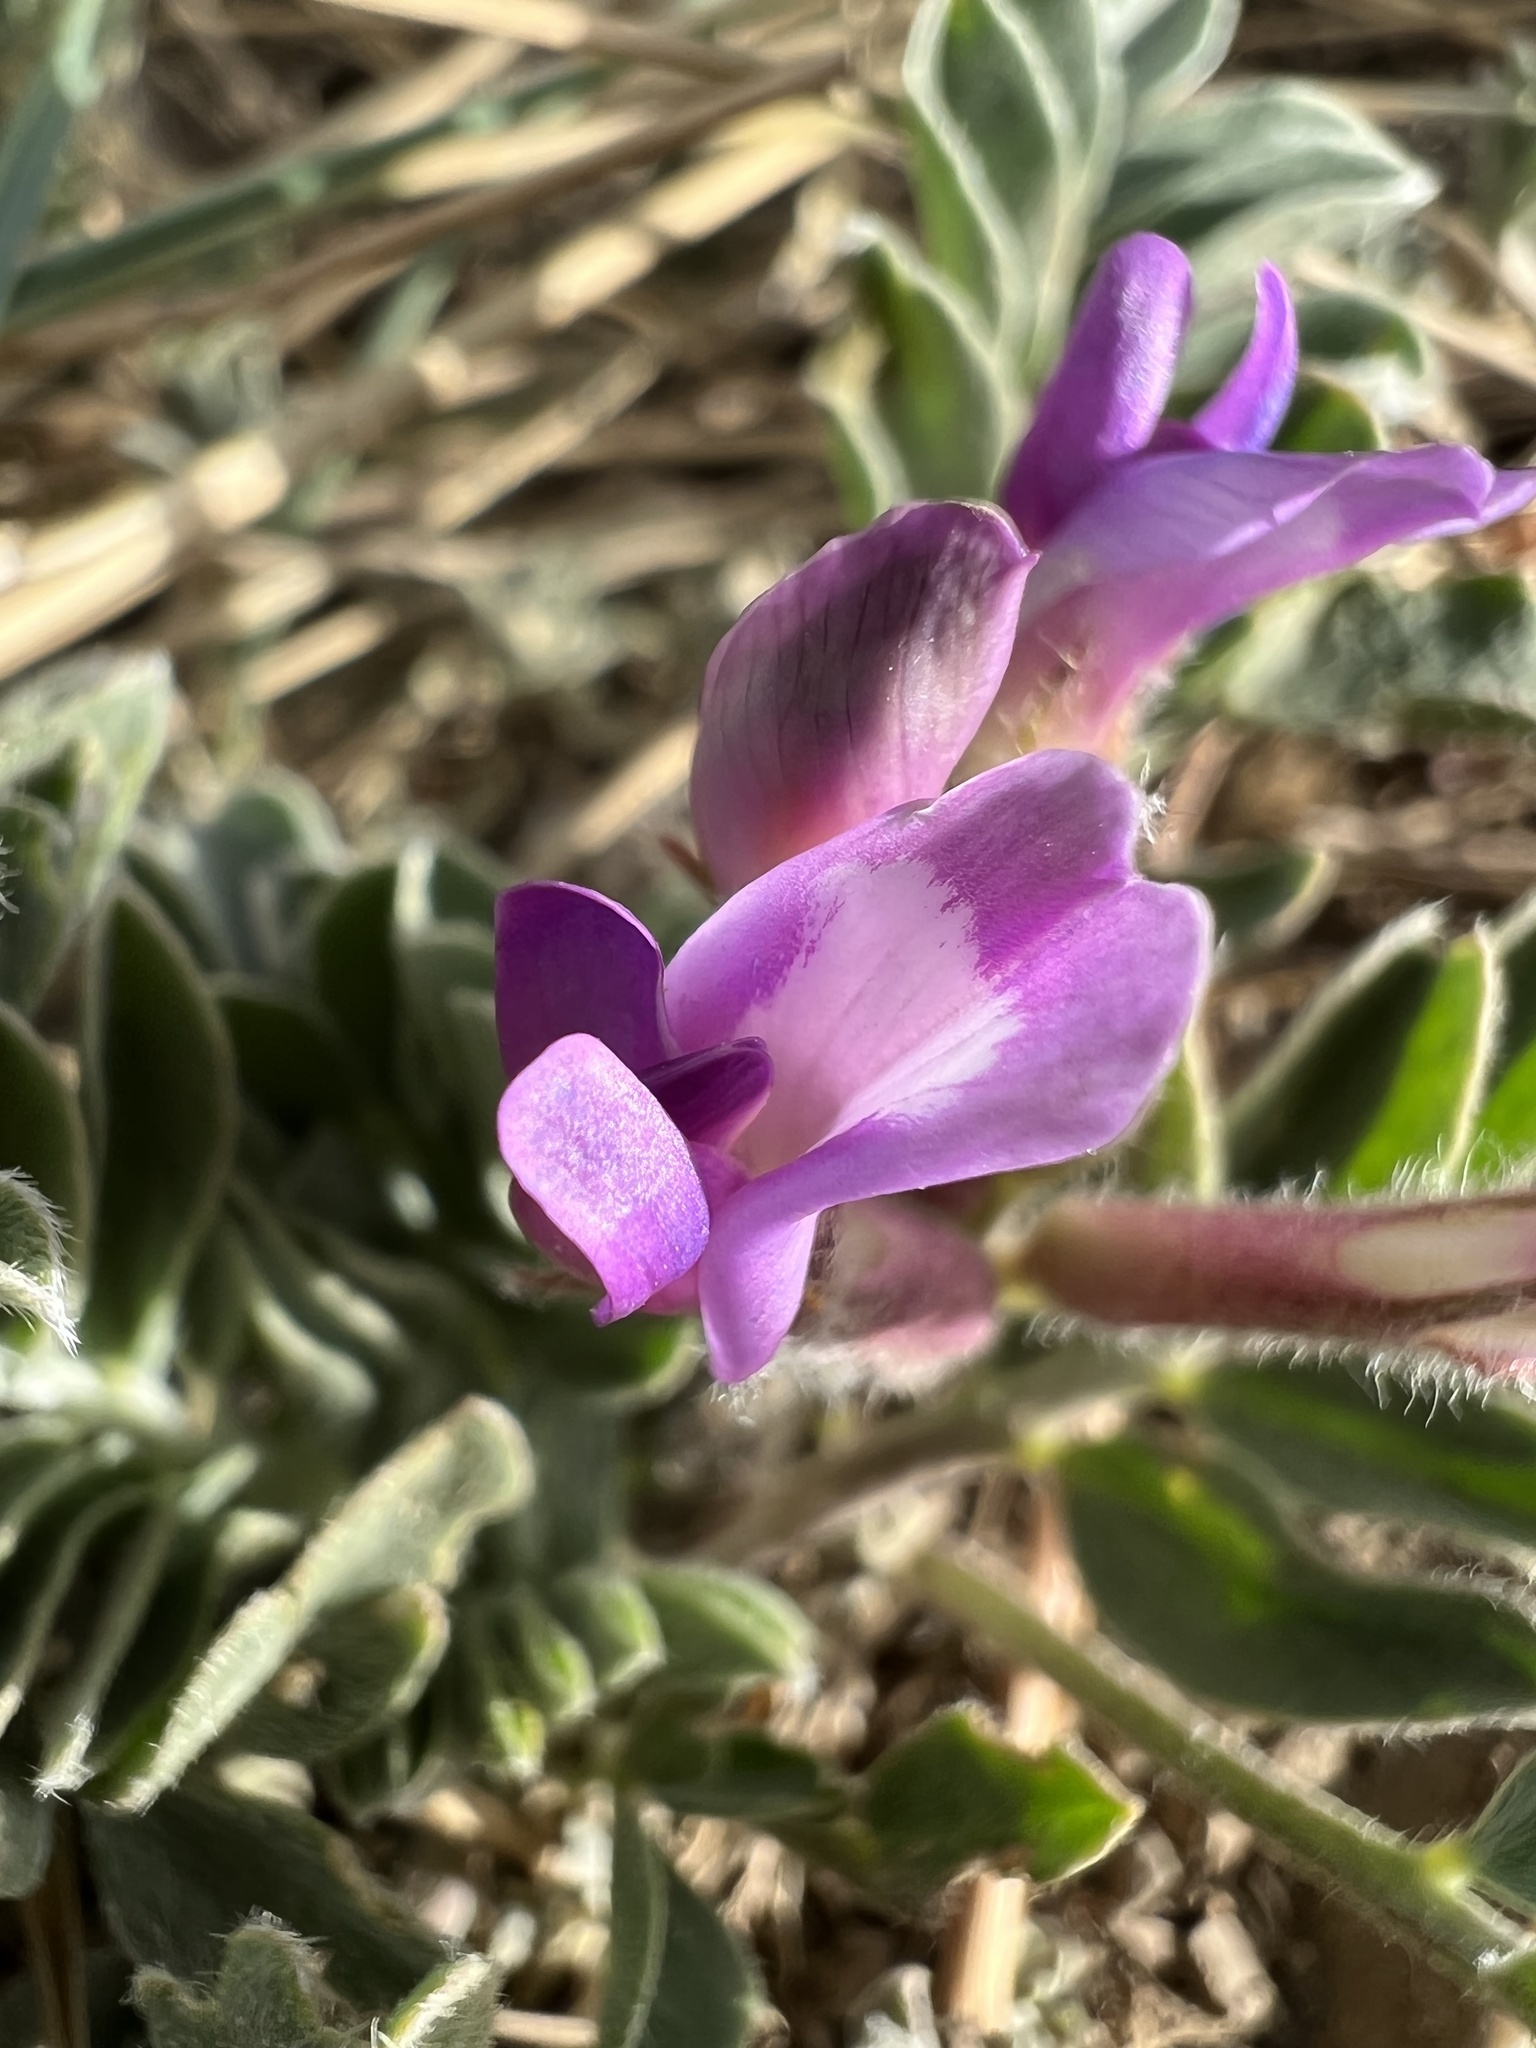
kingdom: Plantae
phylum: Tracheophyta
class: Magnoliopsida
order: Fabales
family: Fabaceae
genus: Astragalus
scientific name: Astragalus shortianus
